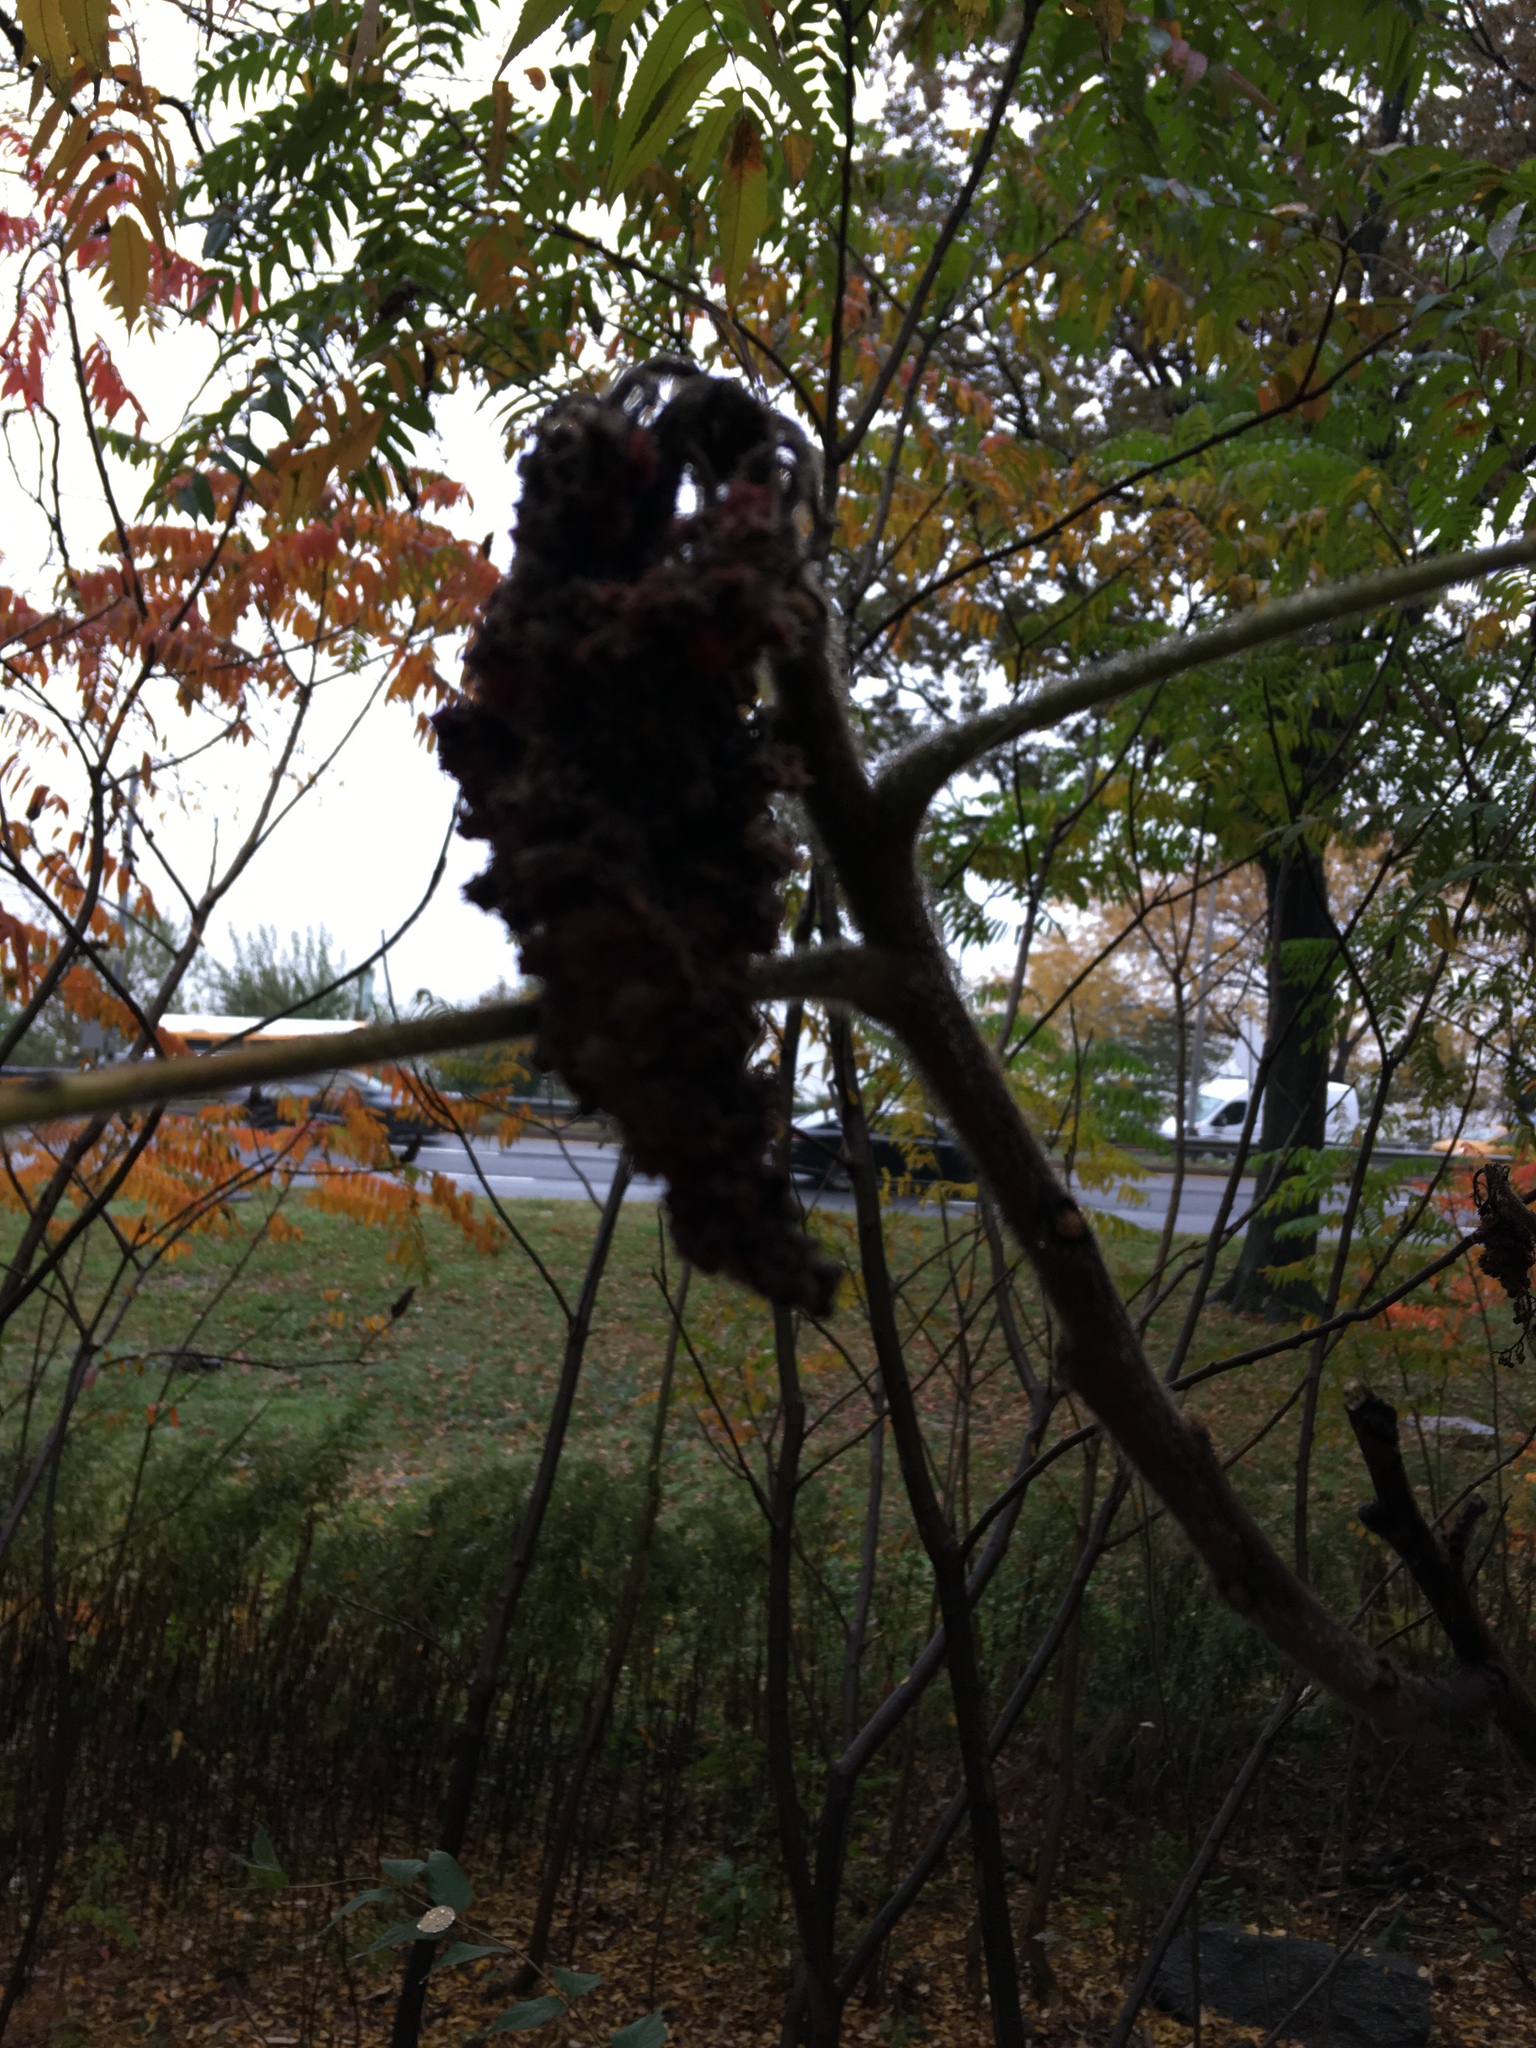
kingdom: Plantae
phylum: Tracheophyta
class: Magnoliopsida
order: Sapindales
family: Anacardiaceae
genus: Rhus
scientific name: Rhus typhina
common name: Staghorn sumac
